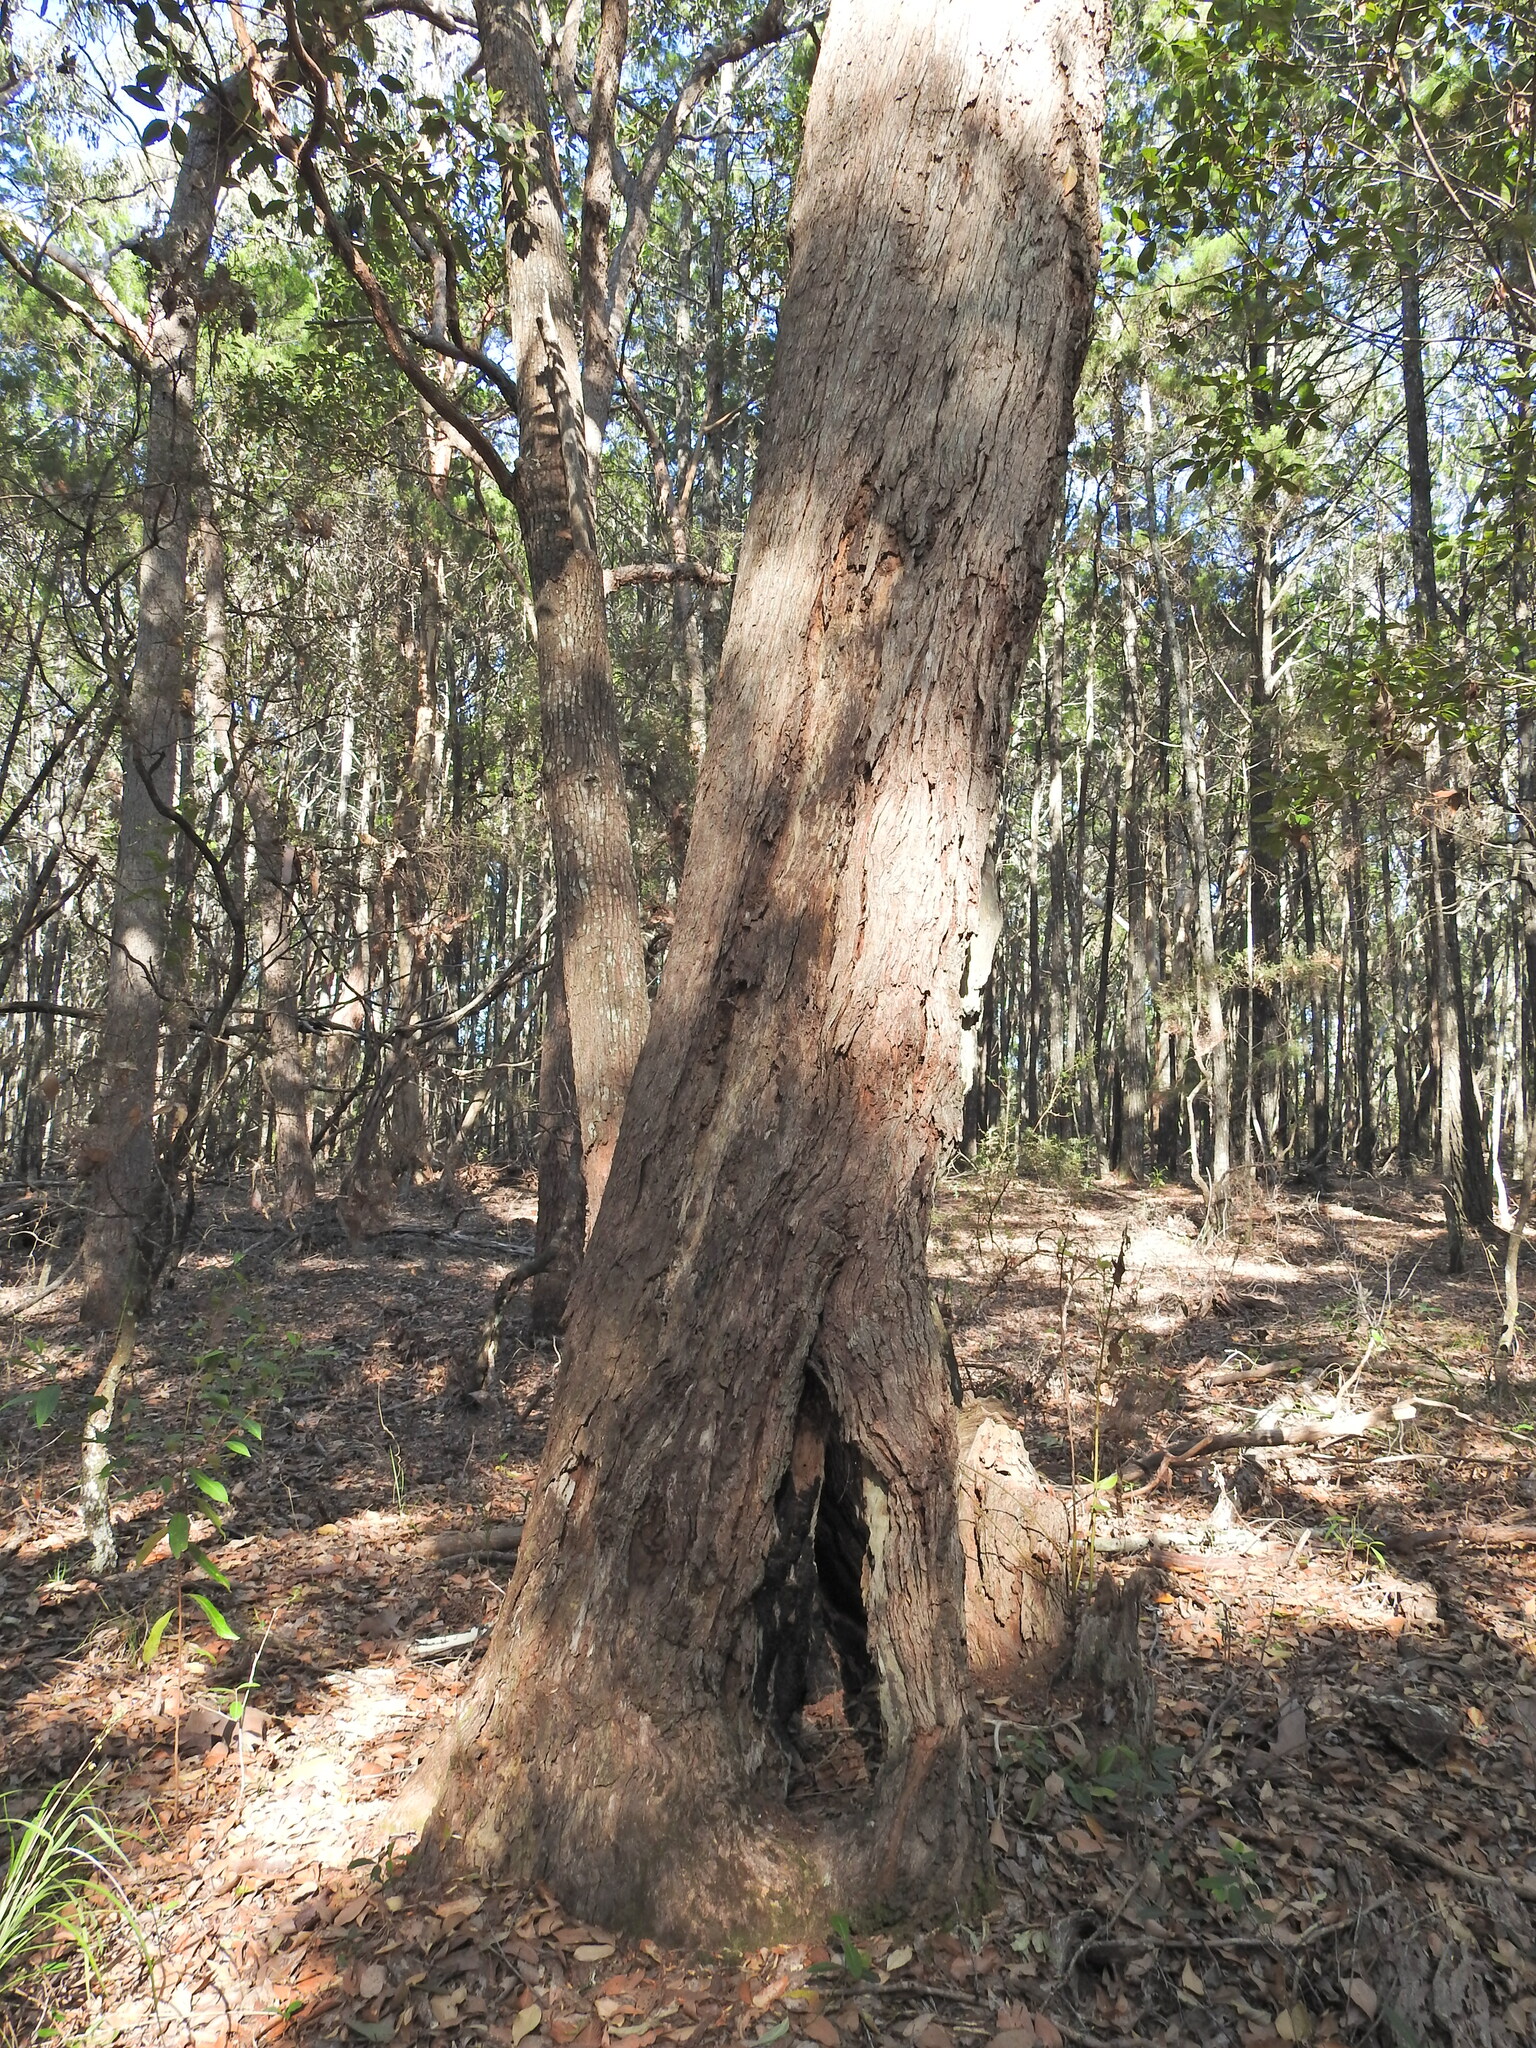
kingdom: Plantae
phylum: Tracheophyta
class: Magnoliopsida
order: Myrtales
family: Myrtaceae
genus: Lophostemon
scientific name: Lophostemon confertus
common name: Brisbane box
